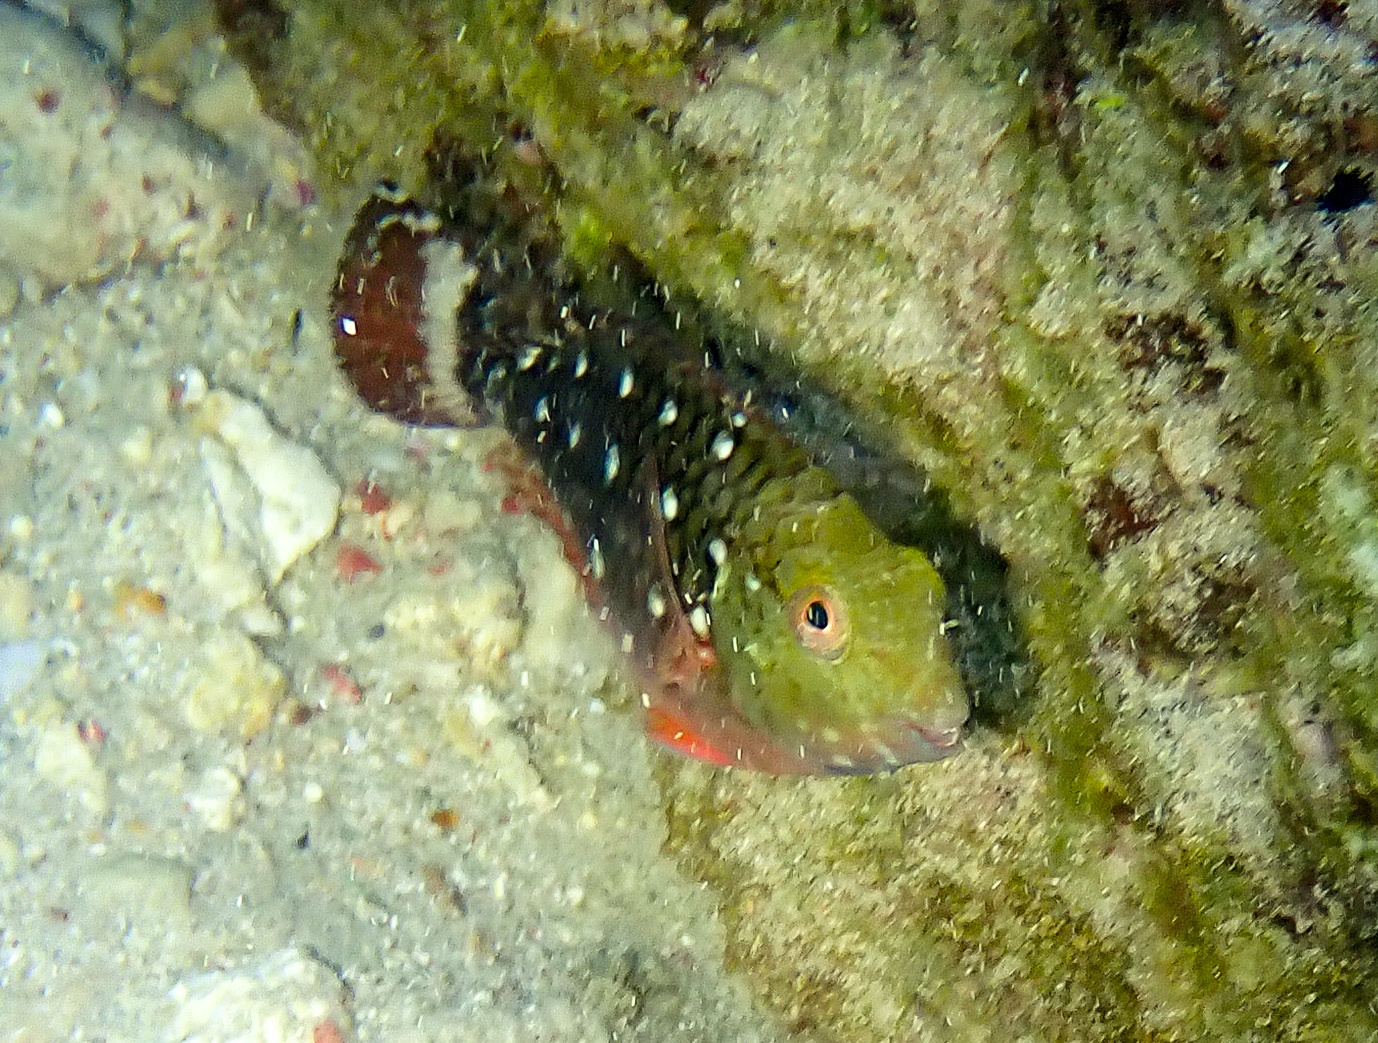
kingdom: Animalia
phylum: Chordata
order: Perciformes
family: Scaridae
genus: Sparisoma
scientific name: Sparisoma viride
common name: Stoplight parrotfish
